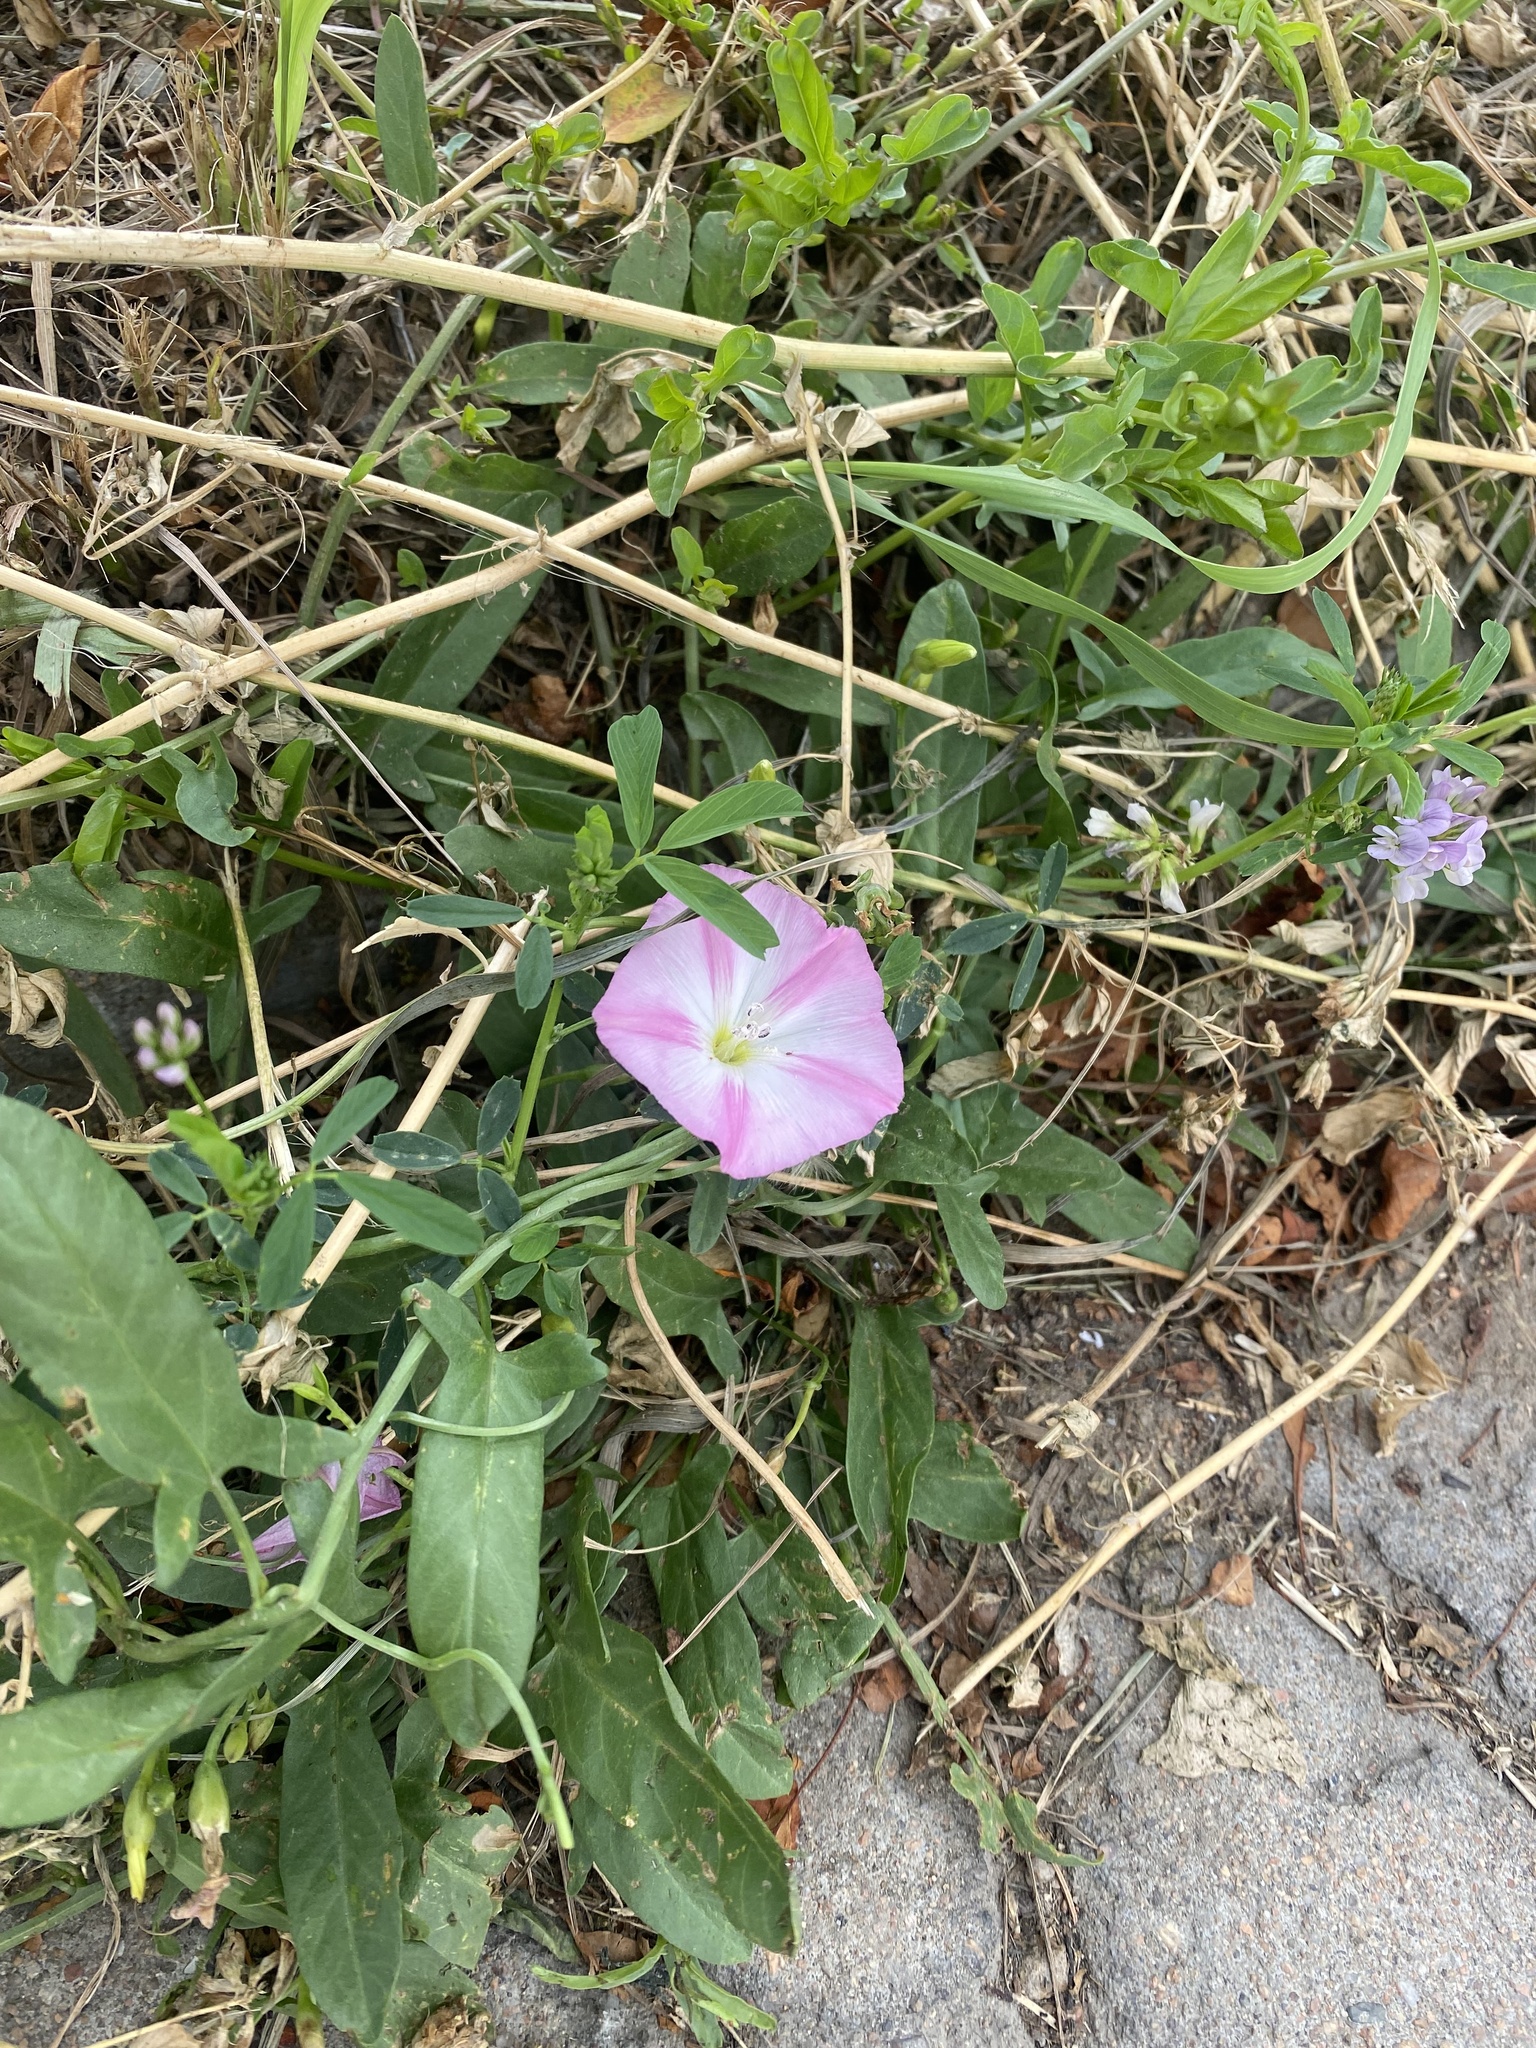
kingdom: Plantae
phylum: Tracheophyta
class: Magnoliopsida
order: Solanales
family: Convolvulaceae
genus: Convolvulus
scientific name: Convolvulus arvensis
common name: Field bindweed
